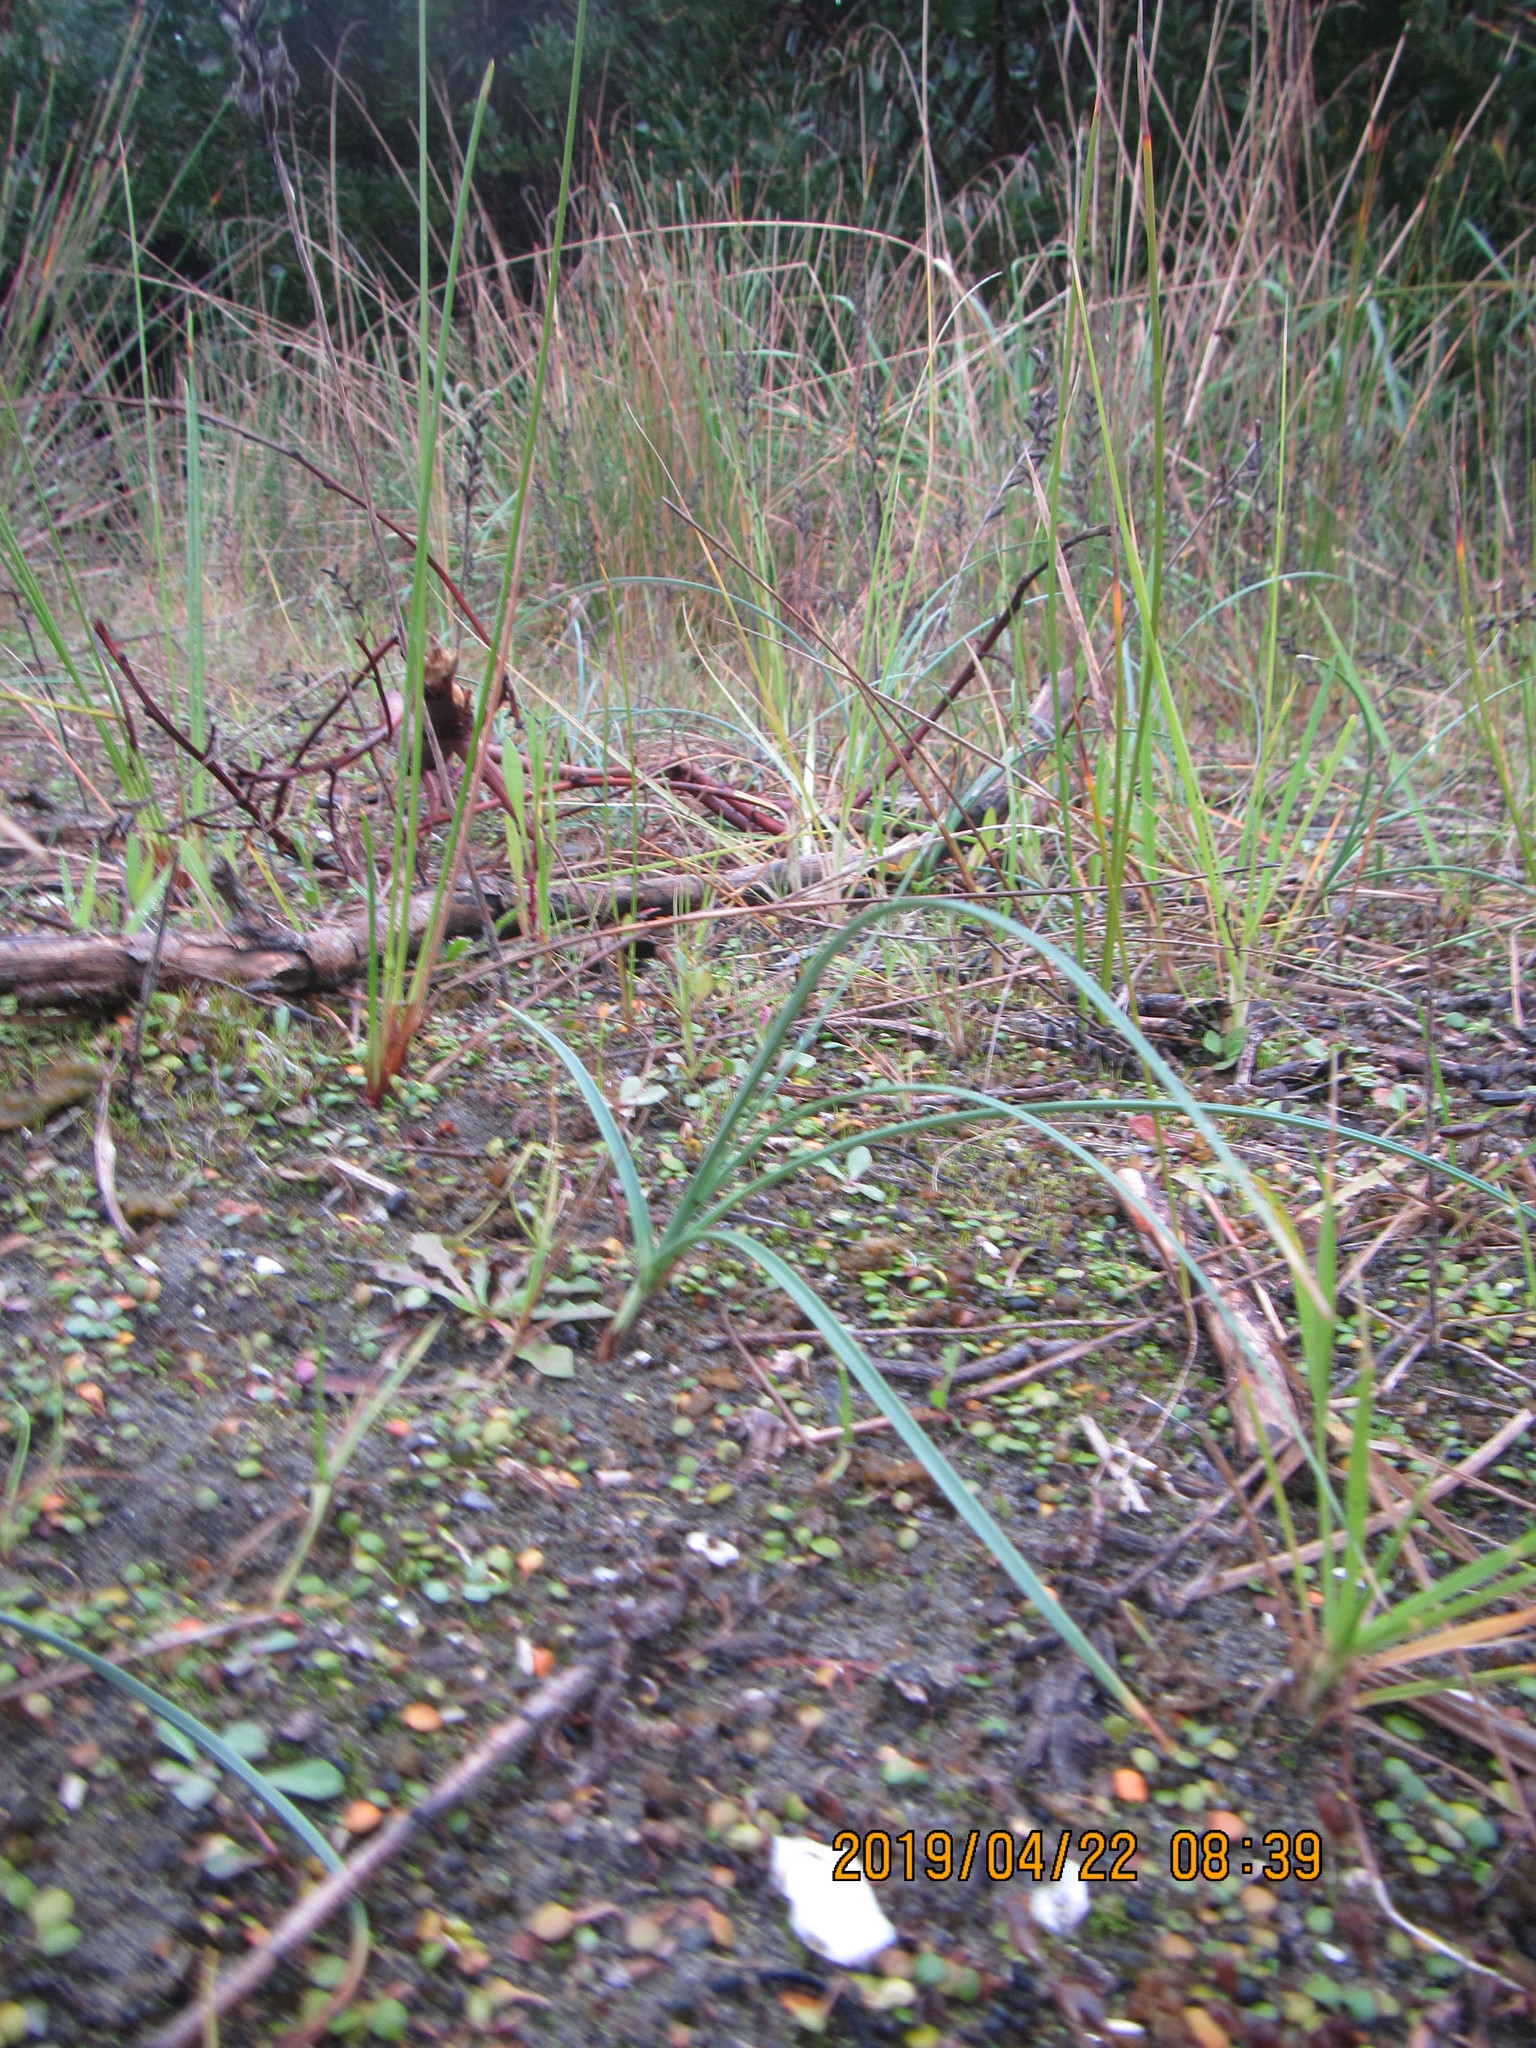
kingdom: Plantae
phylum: Tracheophyta
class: Liliopsida
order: Poales
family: Cyperaceae
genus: Carex
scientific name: Carex pumila
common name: Dwarf sedge
